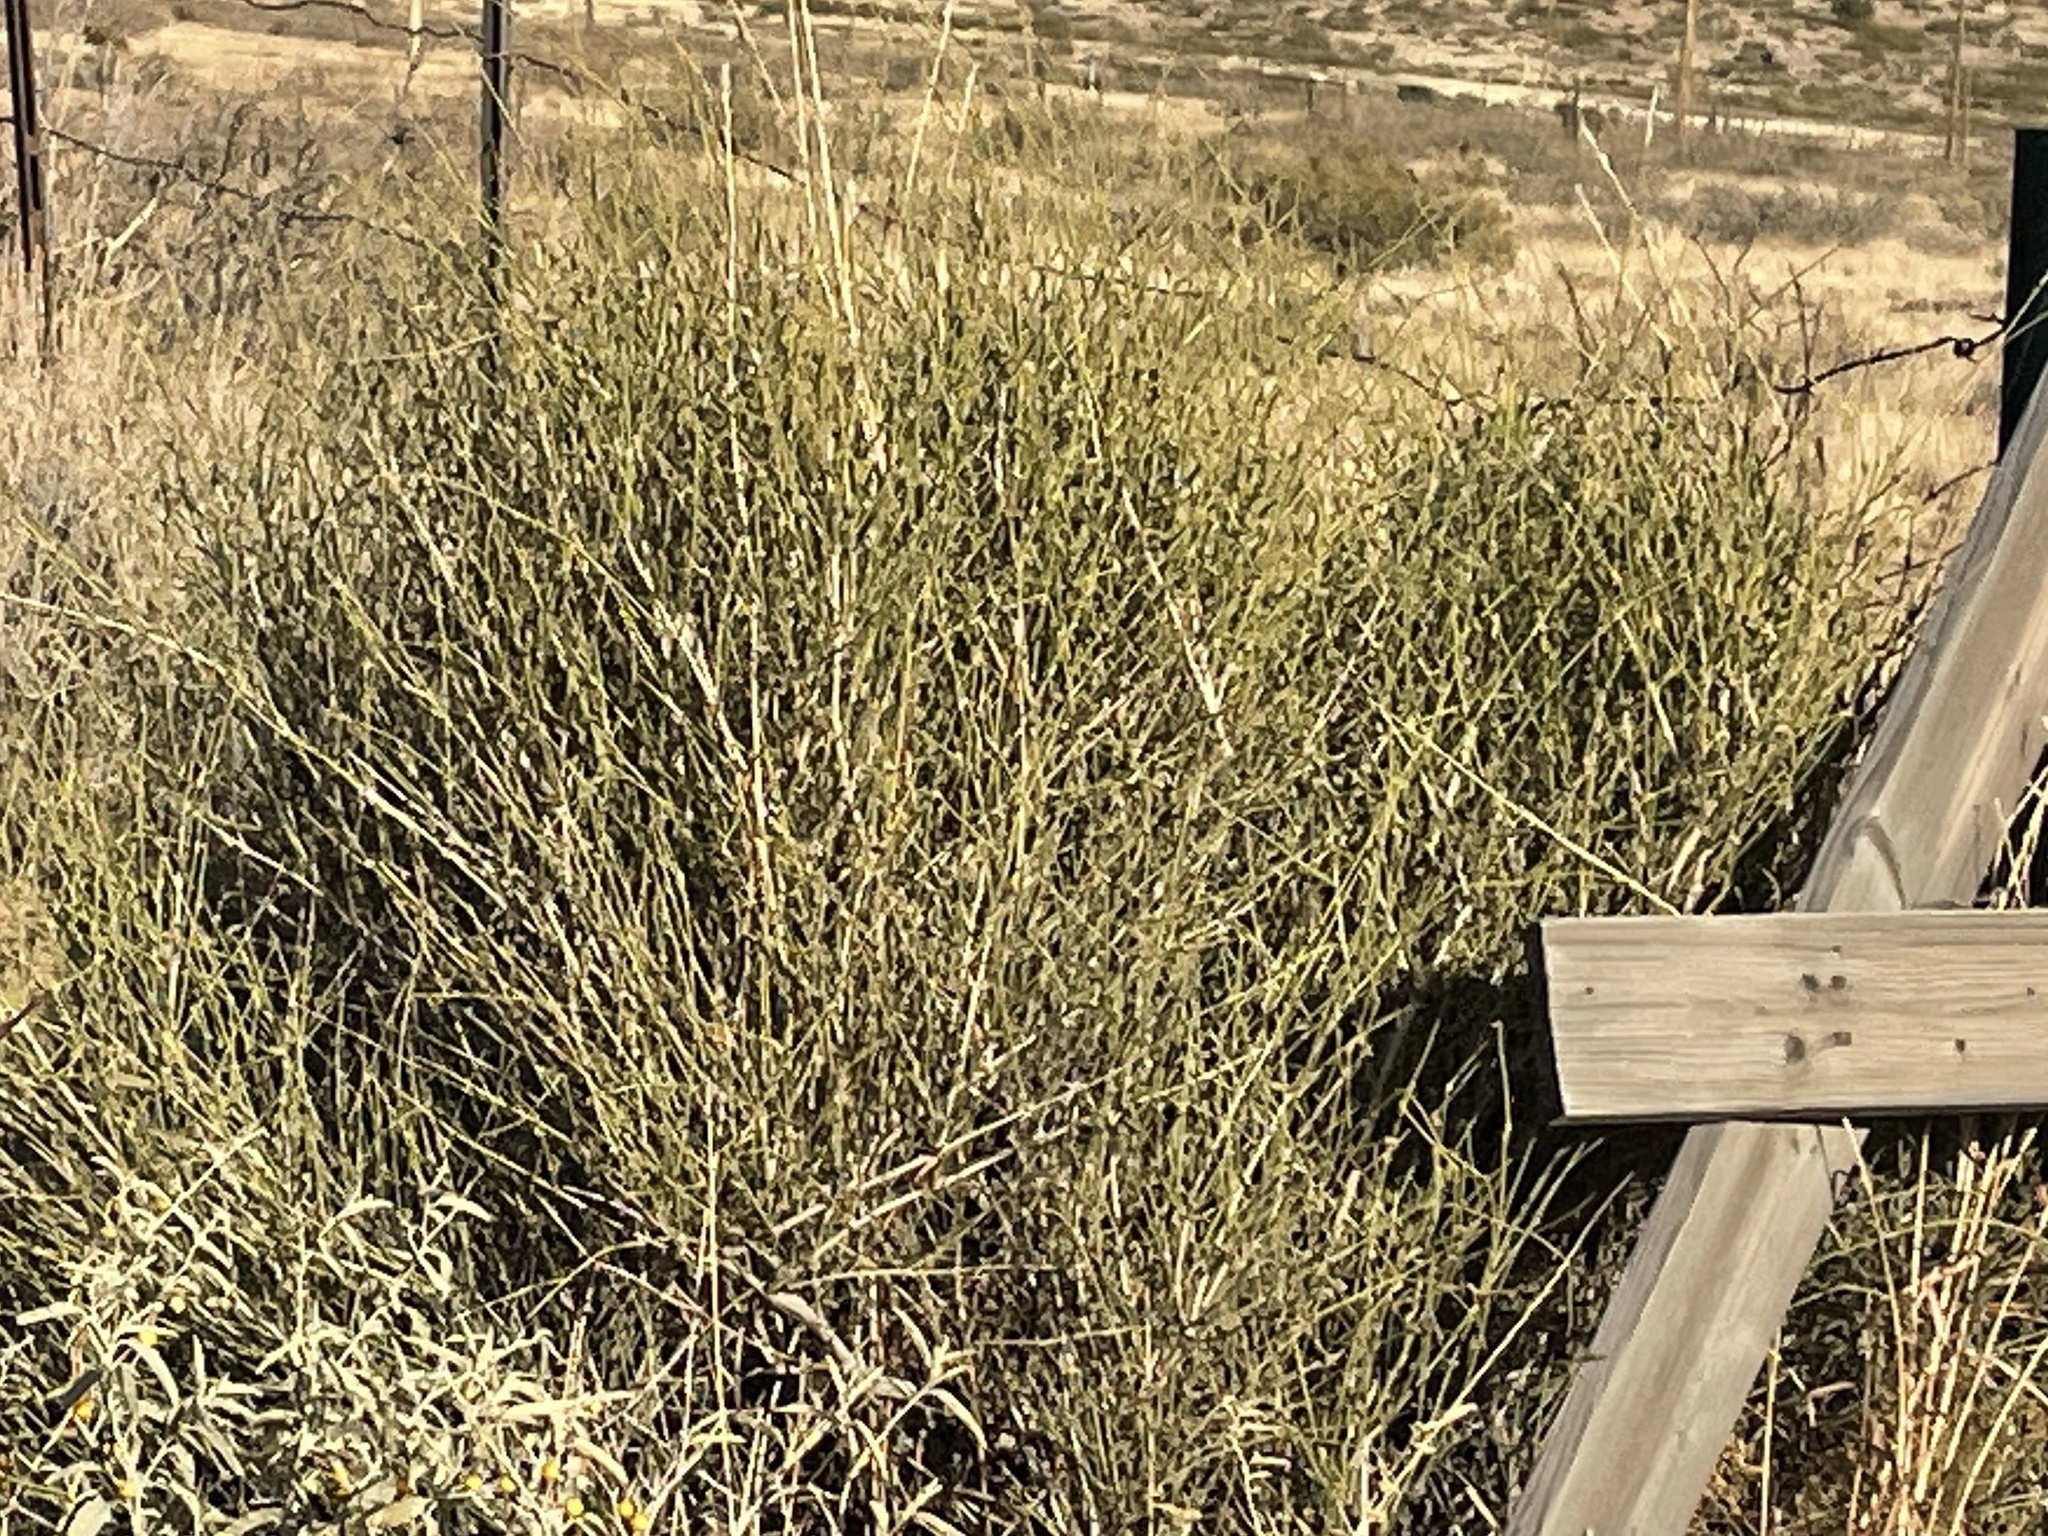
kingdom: Plantae
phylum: Tracheophyta
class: Gnetopsida
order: Ephedrales
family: Ephedraceae
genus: Ephedra
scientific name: Ephedra trifurca
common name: Mexican-tea
